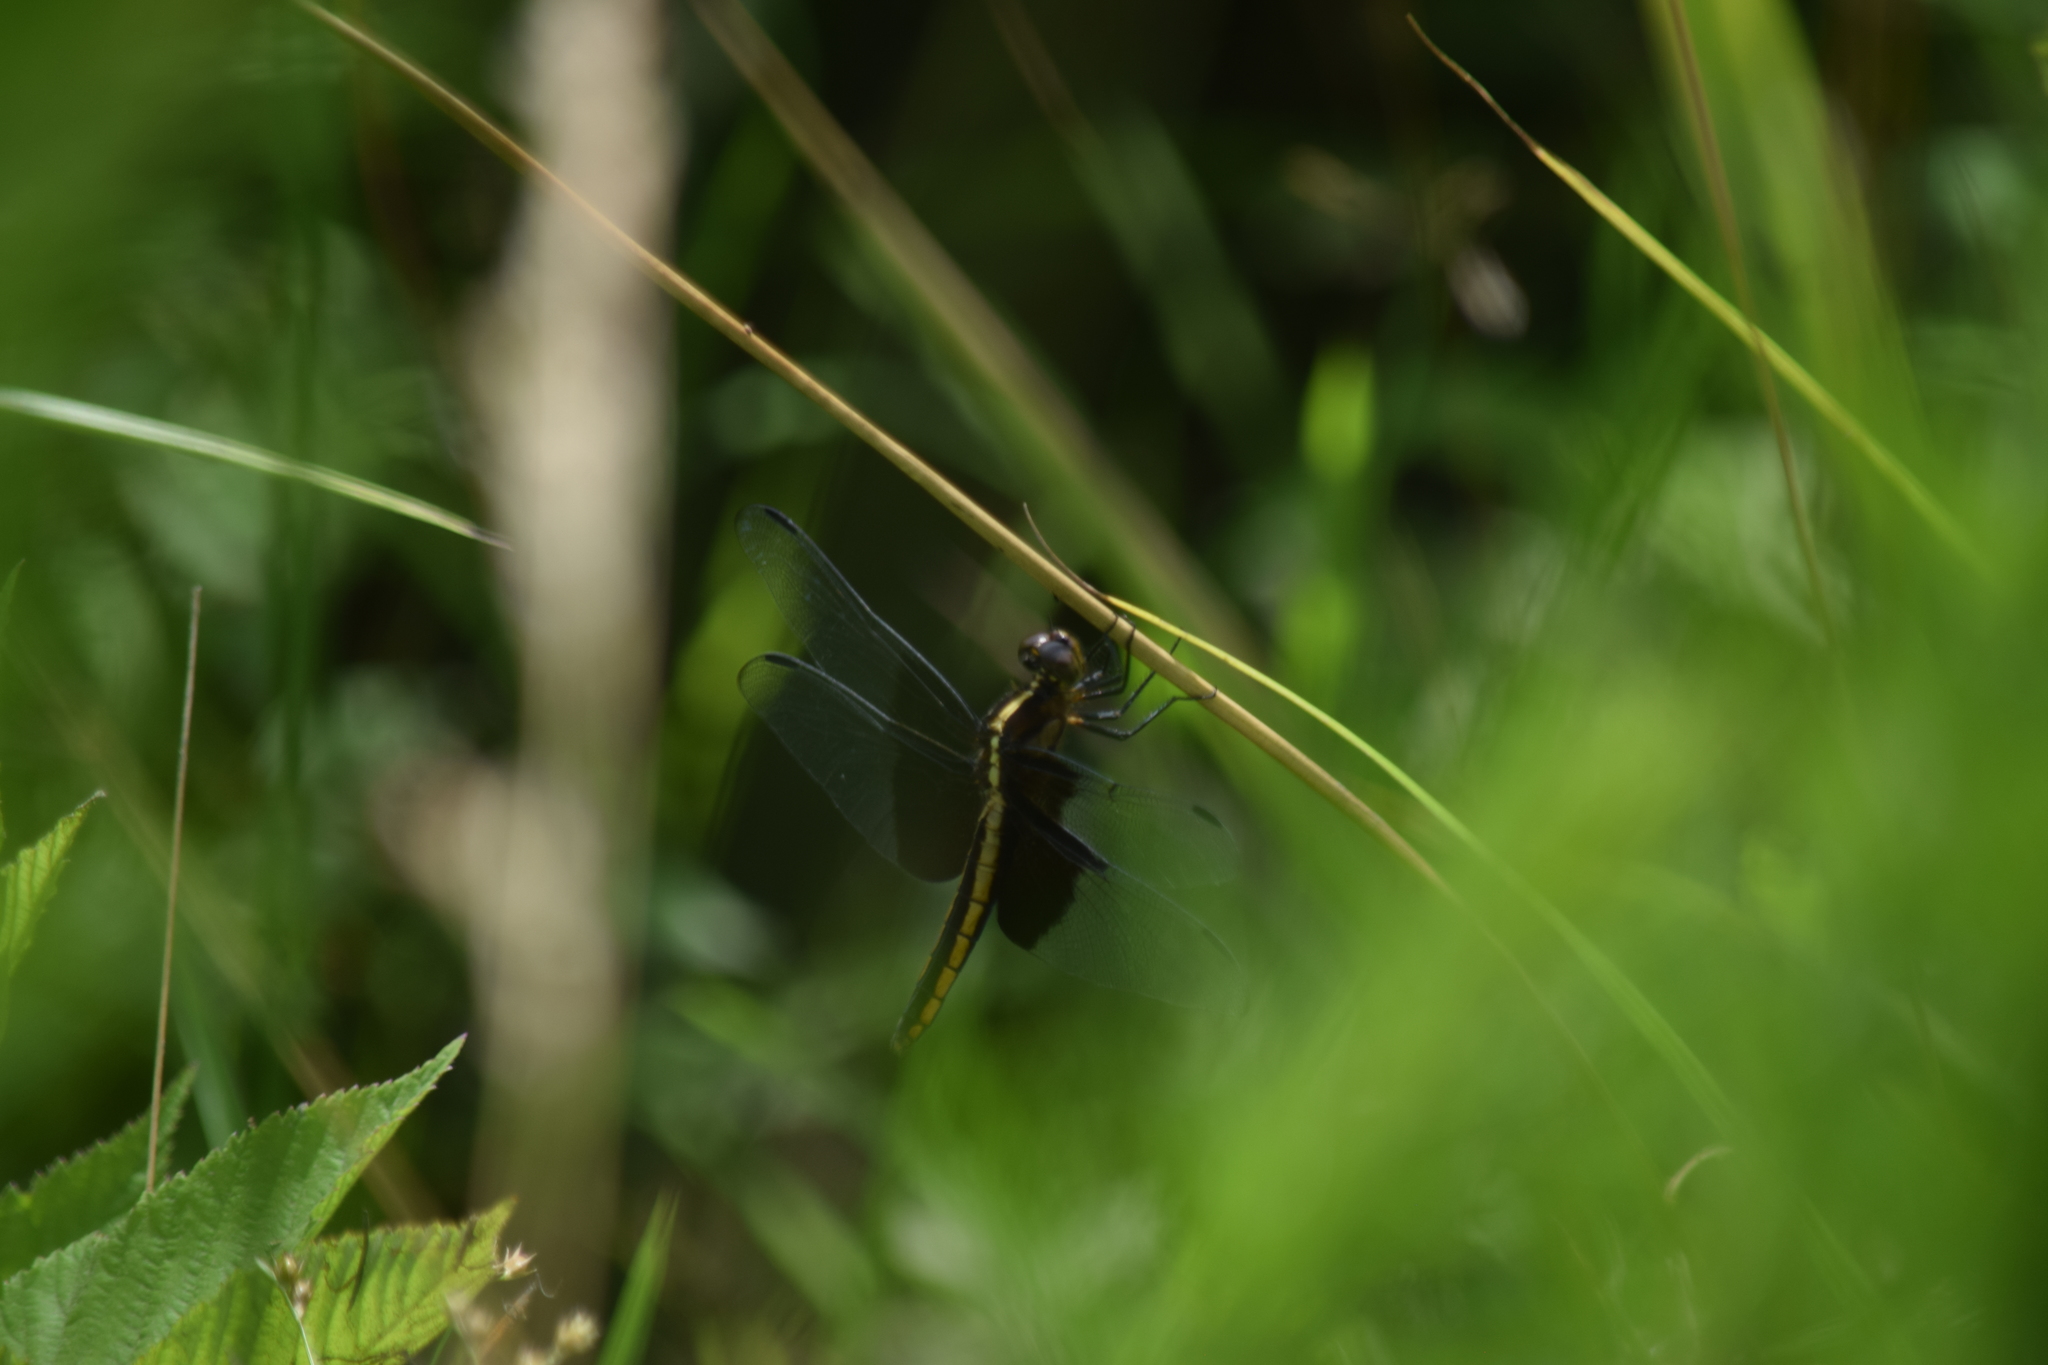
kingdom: Animalia
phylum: Arthropoda
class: Insecta
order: Odonata
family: Libellulidae
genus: Libellula
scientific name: Libellula luctuosa
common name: Widow skimmer
